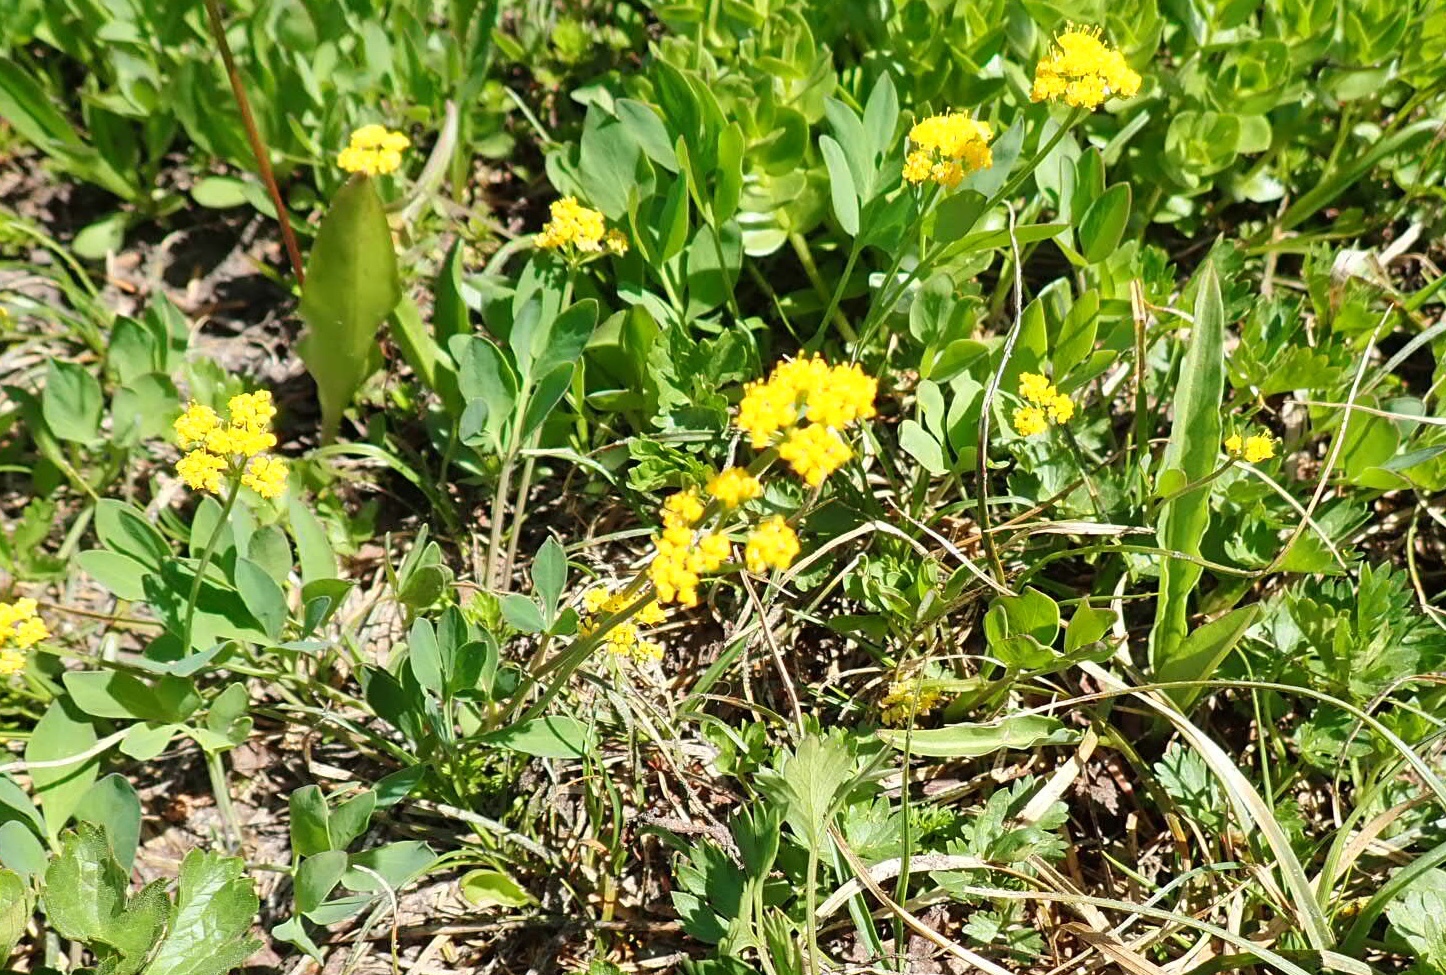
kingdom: Plantae
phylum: Tracheophyta
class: Magnoliopsida
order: Apiales
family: Apiaceae
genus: Tauschia
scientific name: Tauschia stricklandii
